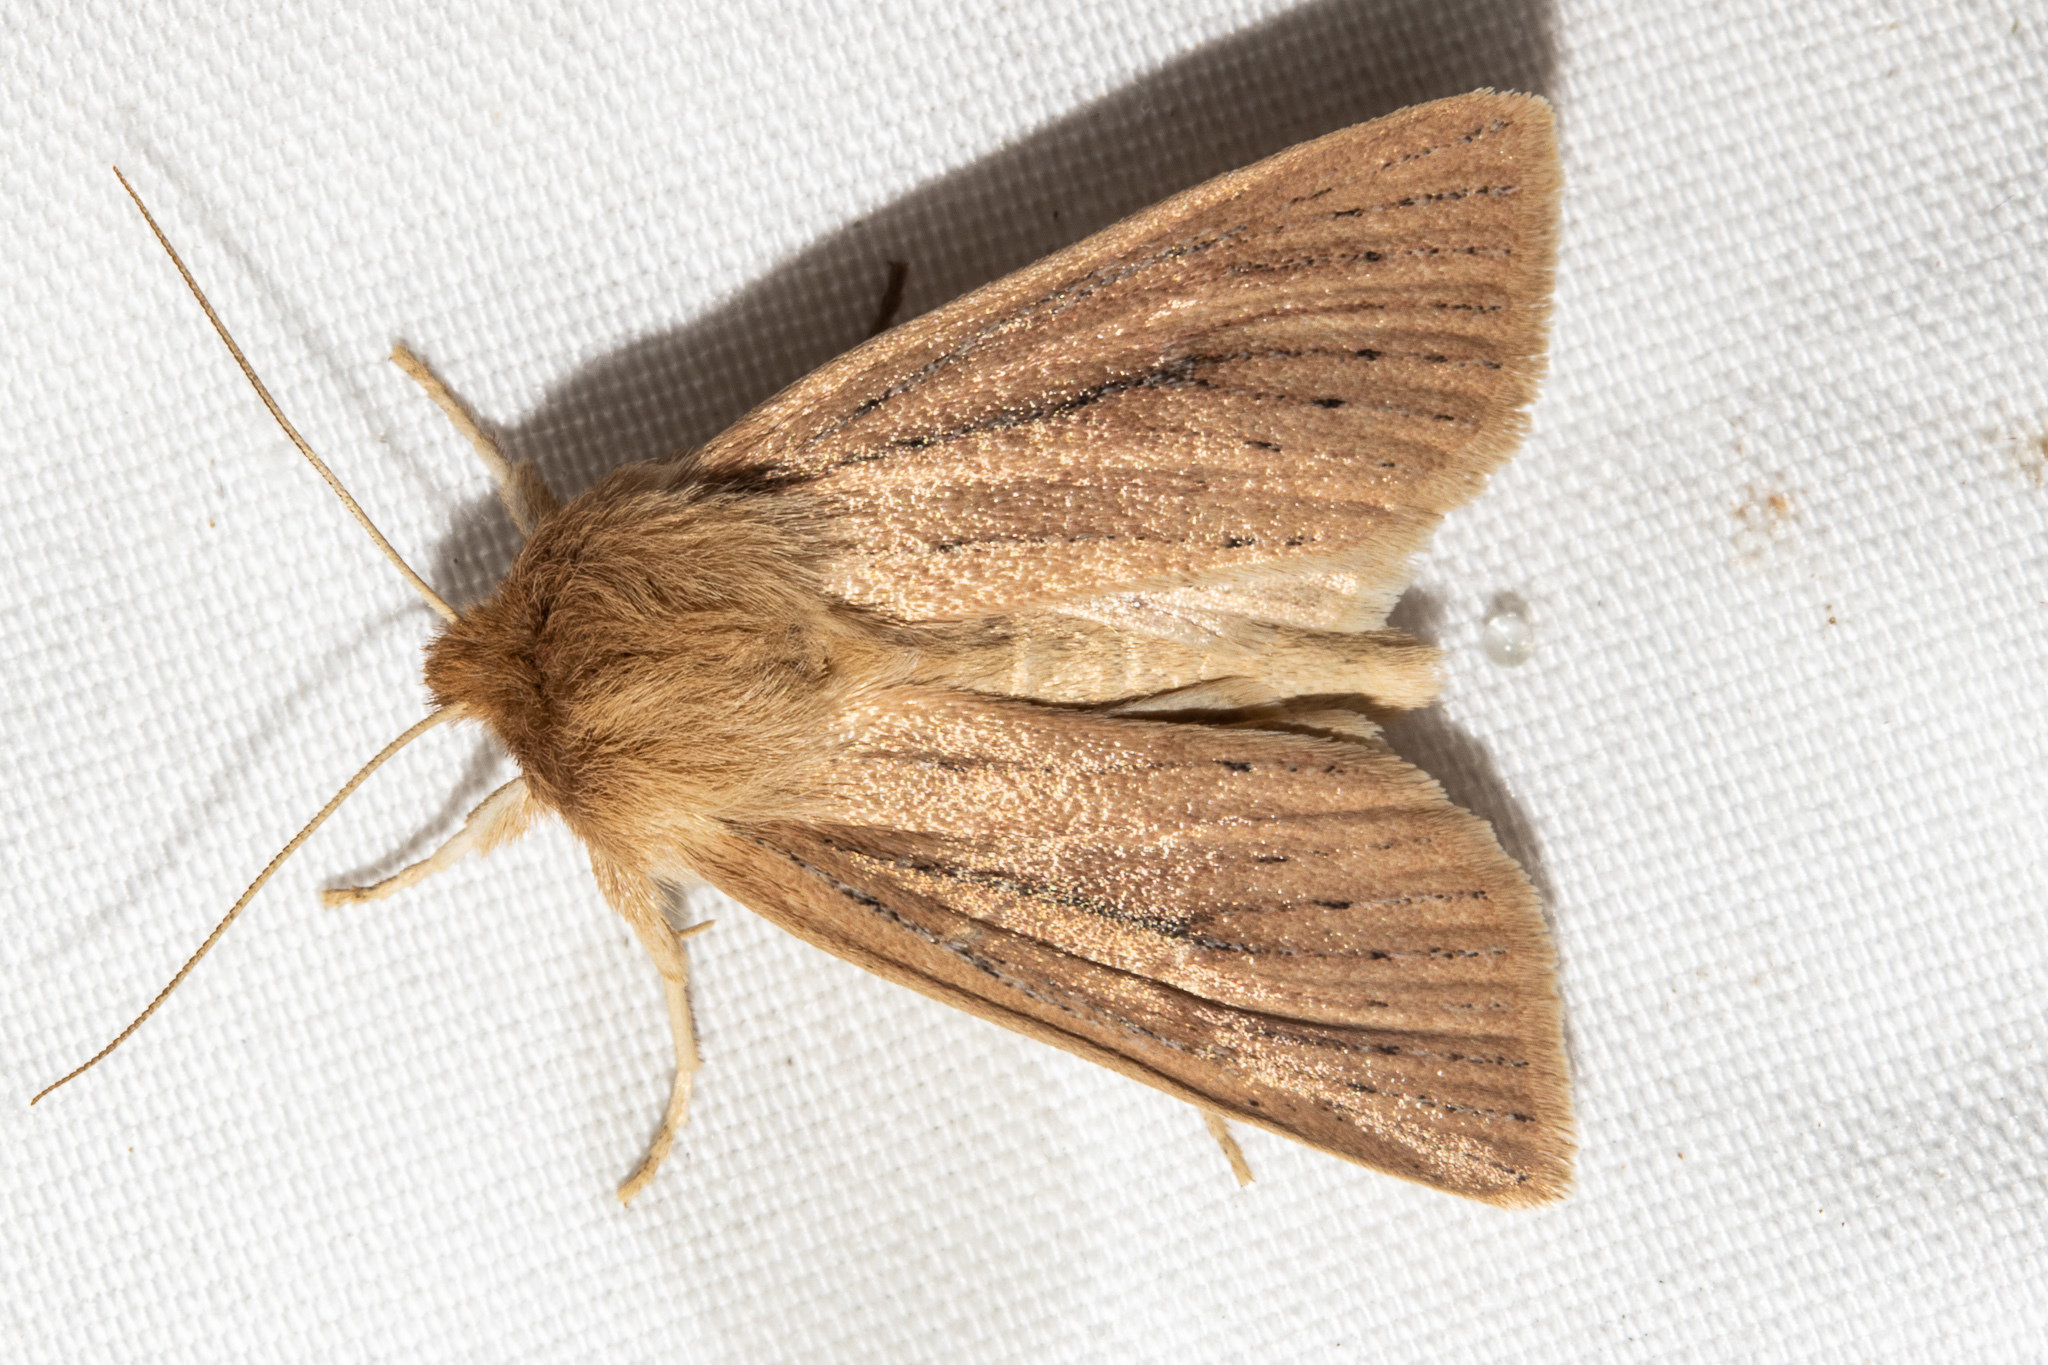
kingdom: Animalia
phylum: Arthropoda
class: Insecta
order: Lepidoptera
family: Noctuidae
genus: Ichneutica
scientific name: Ichneutica
